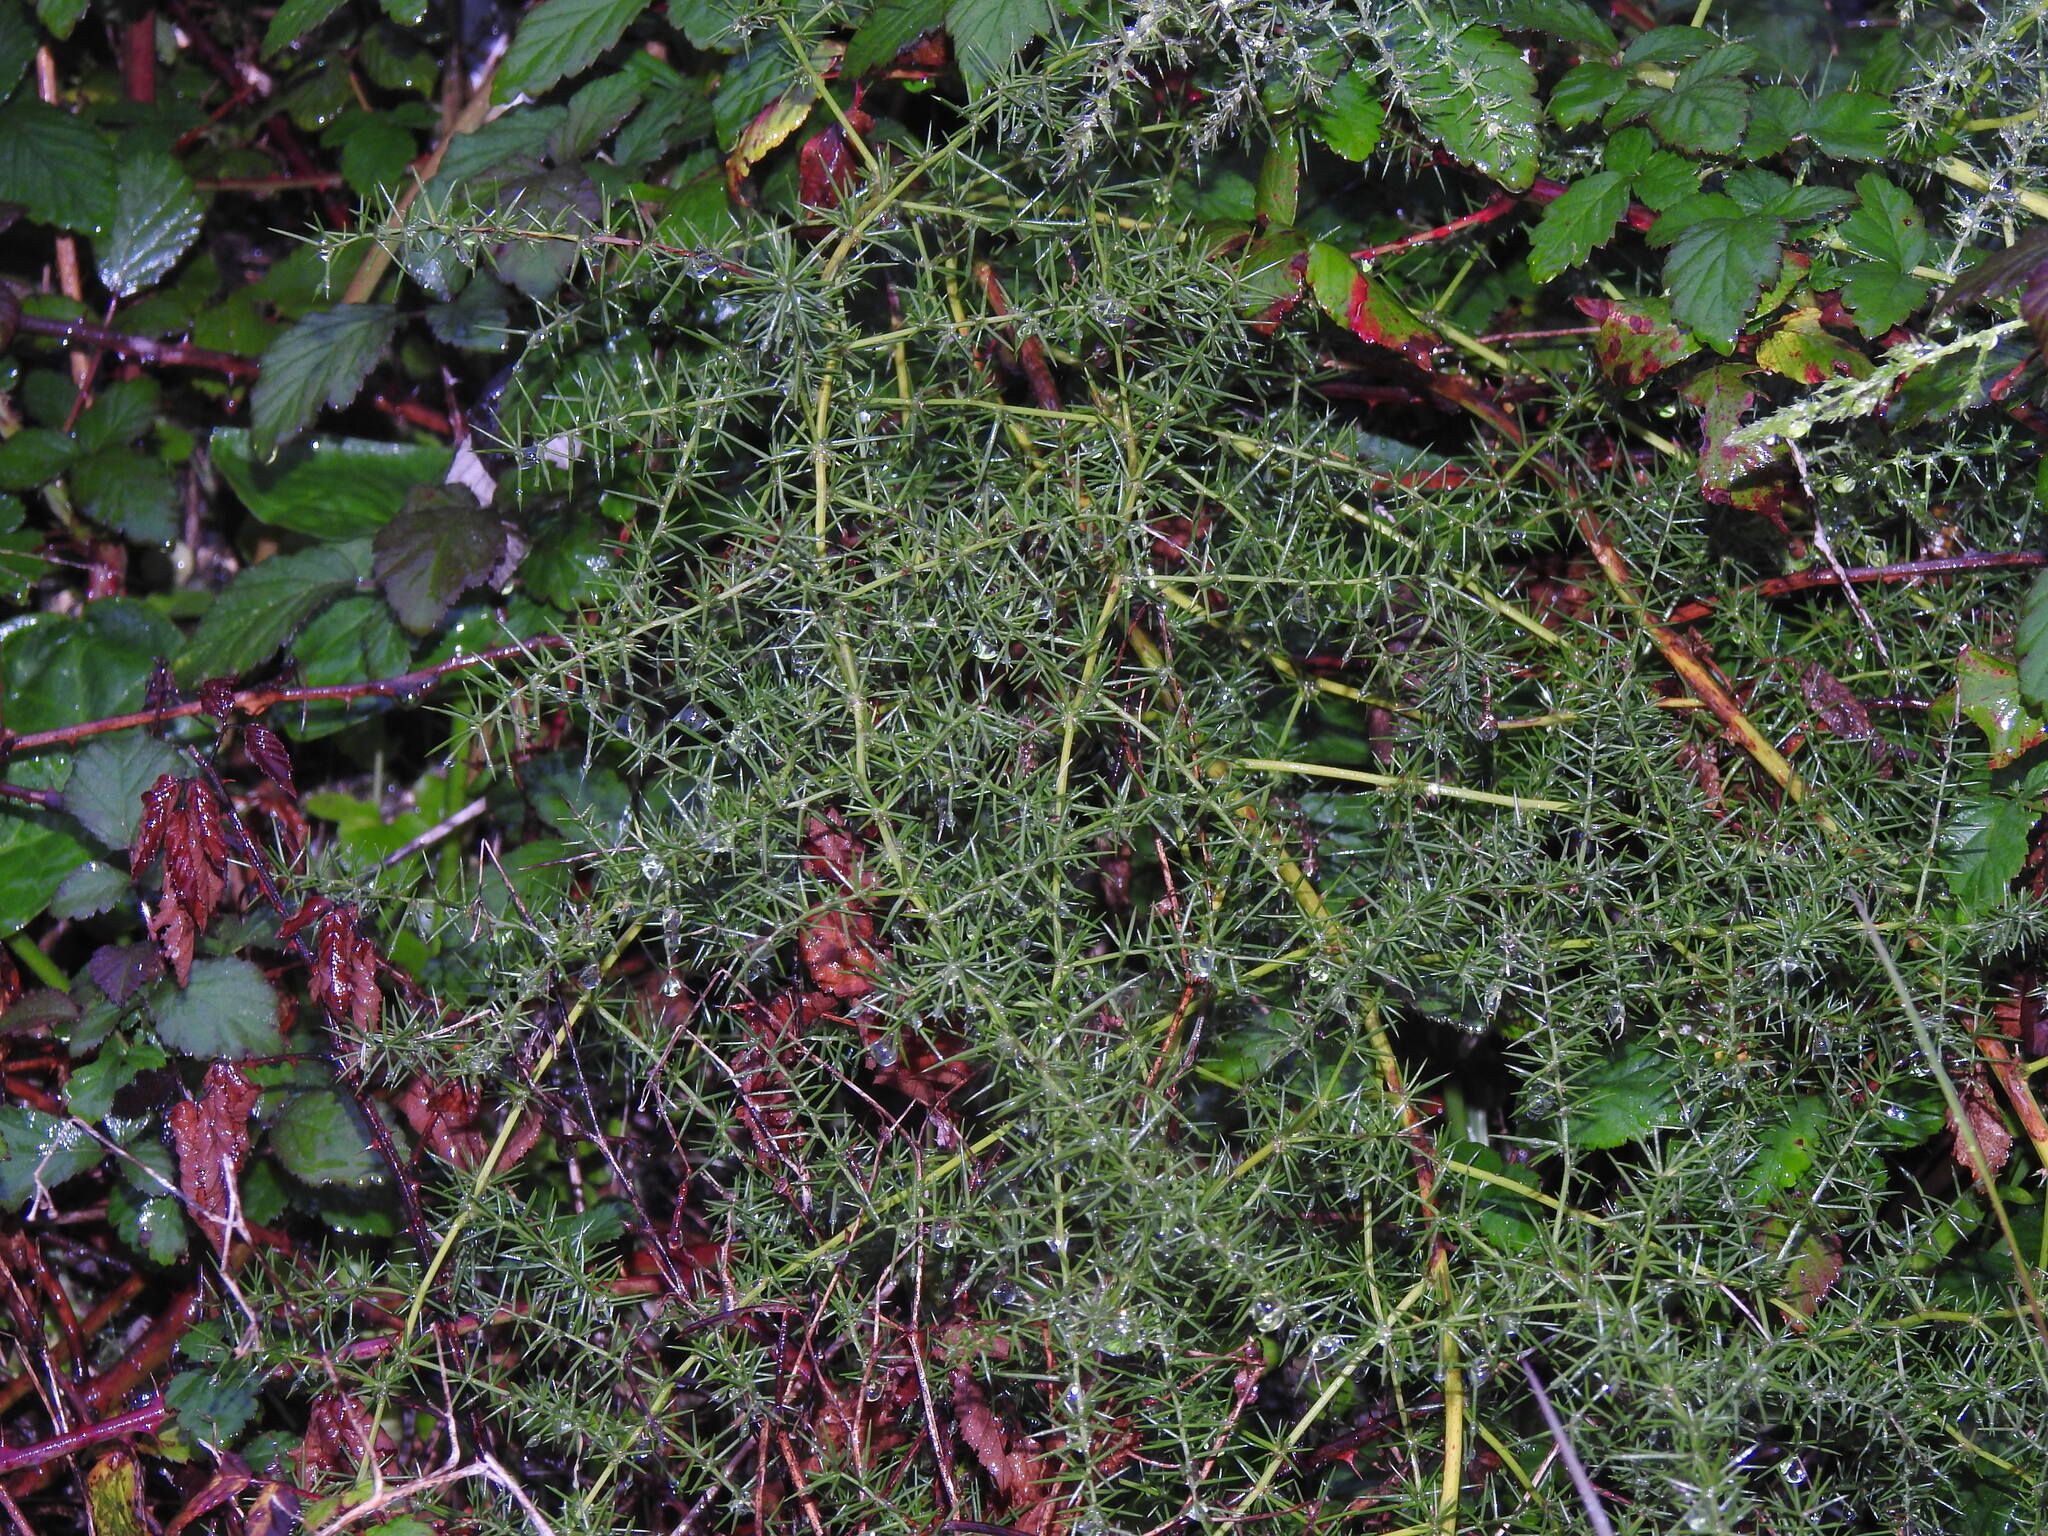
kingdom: Plantae
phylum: Tracheophyta
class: Liliopsida
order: Asparagales
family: Asparagaceae
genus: Asparagus
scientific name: Asparagus aphyllus
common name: Mediterranean asparagus
